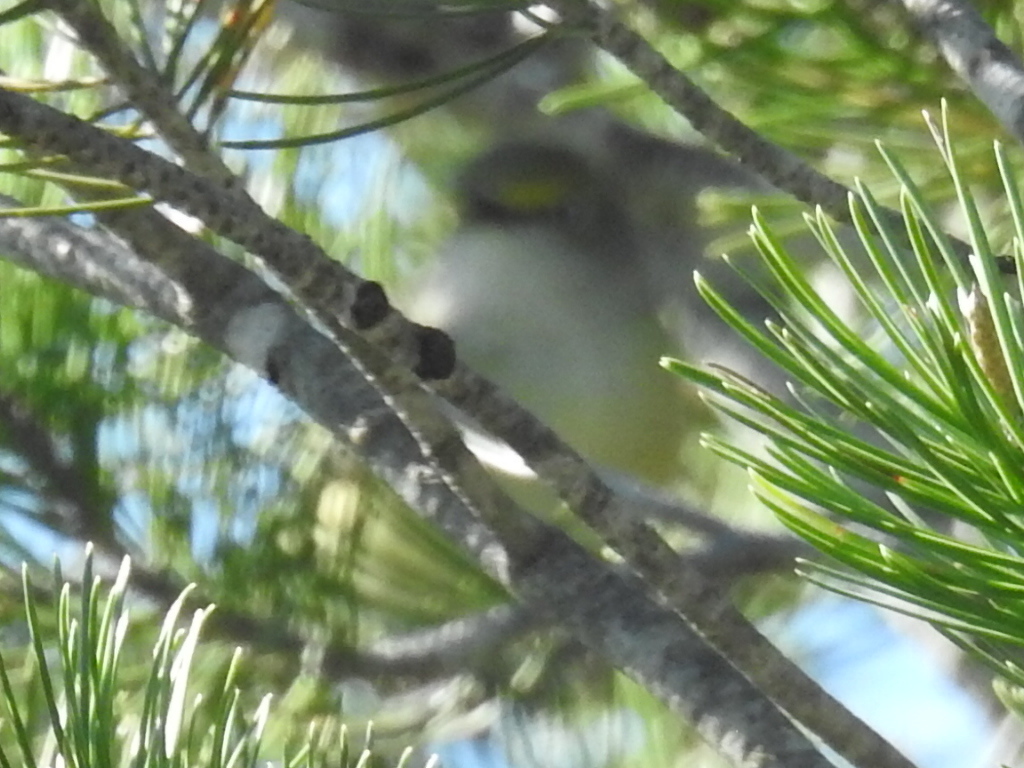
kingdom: Animalia
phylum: Chordata
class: Aves
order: Passeriformes
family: Vireonidae
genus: Vireo
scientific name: Vireo griseus
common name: White-eyed vireo
